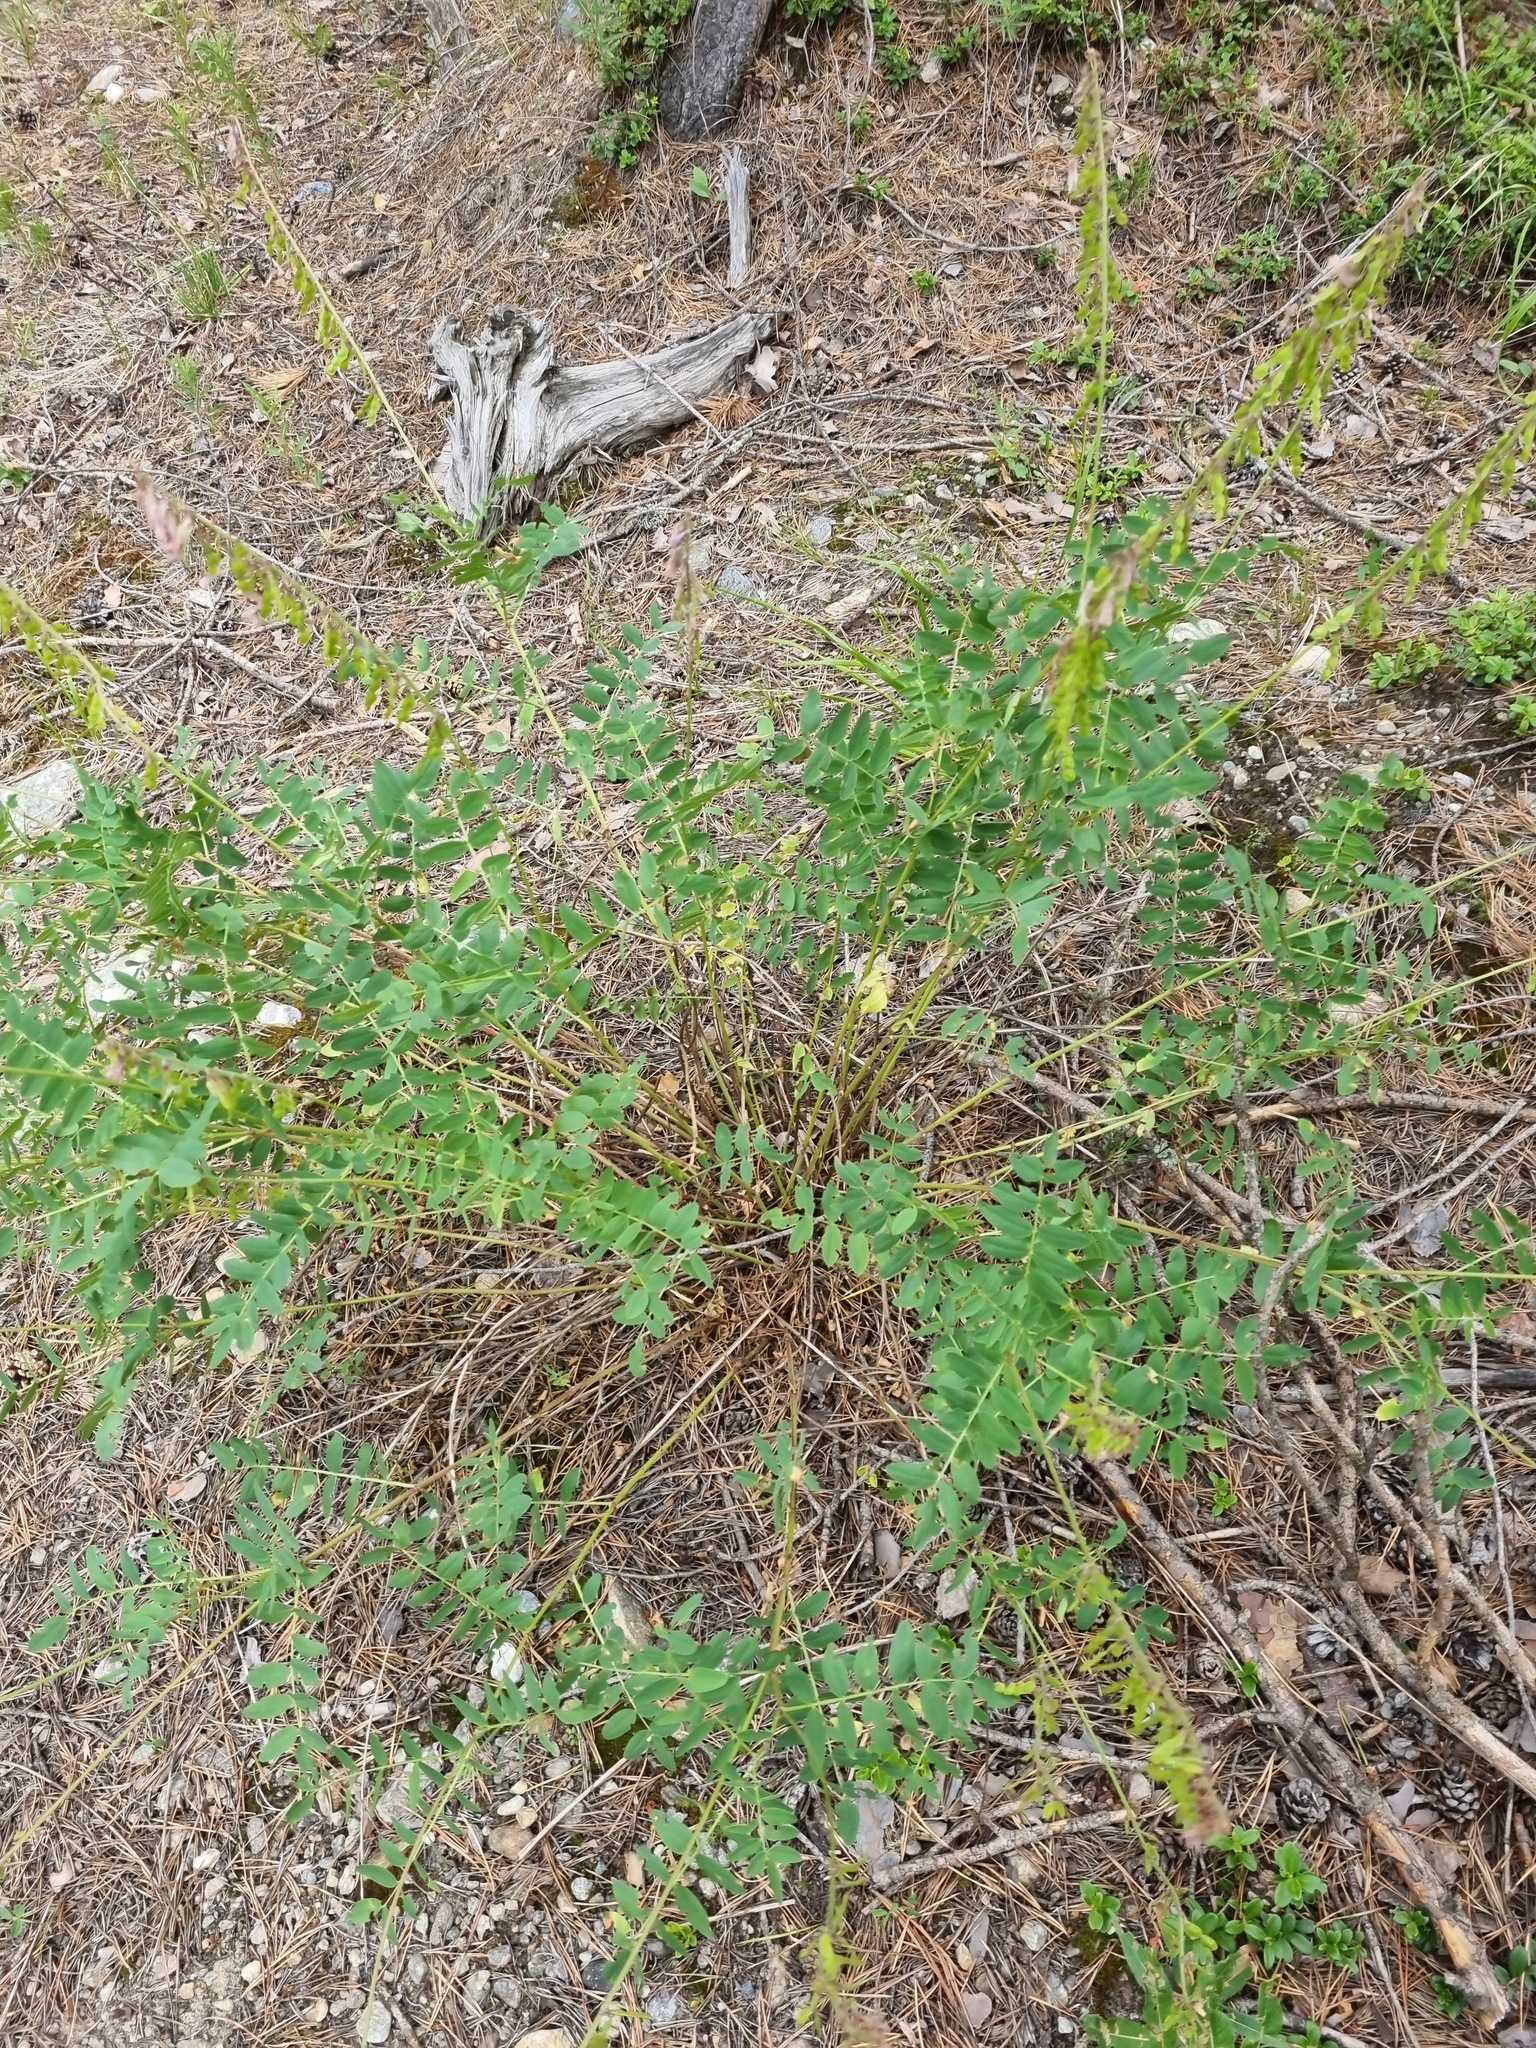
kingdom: Plantae
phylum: Tracheophyta
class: Magnoliopsida
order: Fabales
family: Fabaceae
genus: Hedysarum
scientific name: Hedysarum caucasicum
